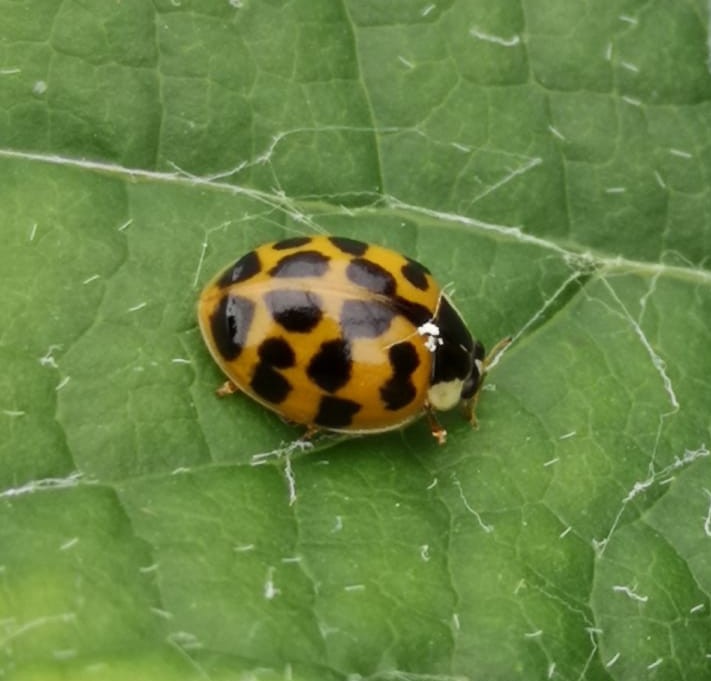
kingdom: Animalia
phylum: Arthropoda
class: Insecta
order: Coleoptera
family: Coccinellidae
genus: Harmonia
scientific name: Harmonia axyridis
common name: Harlequin ladybird
